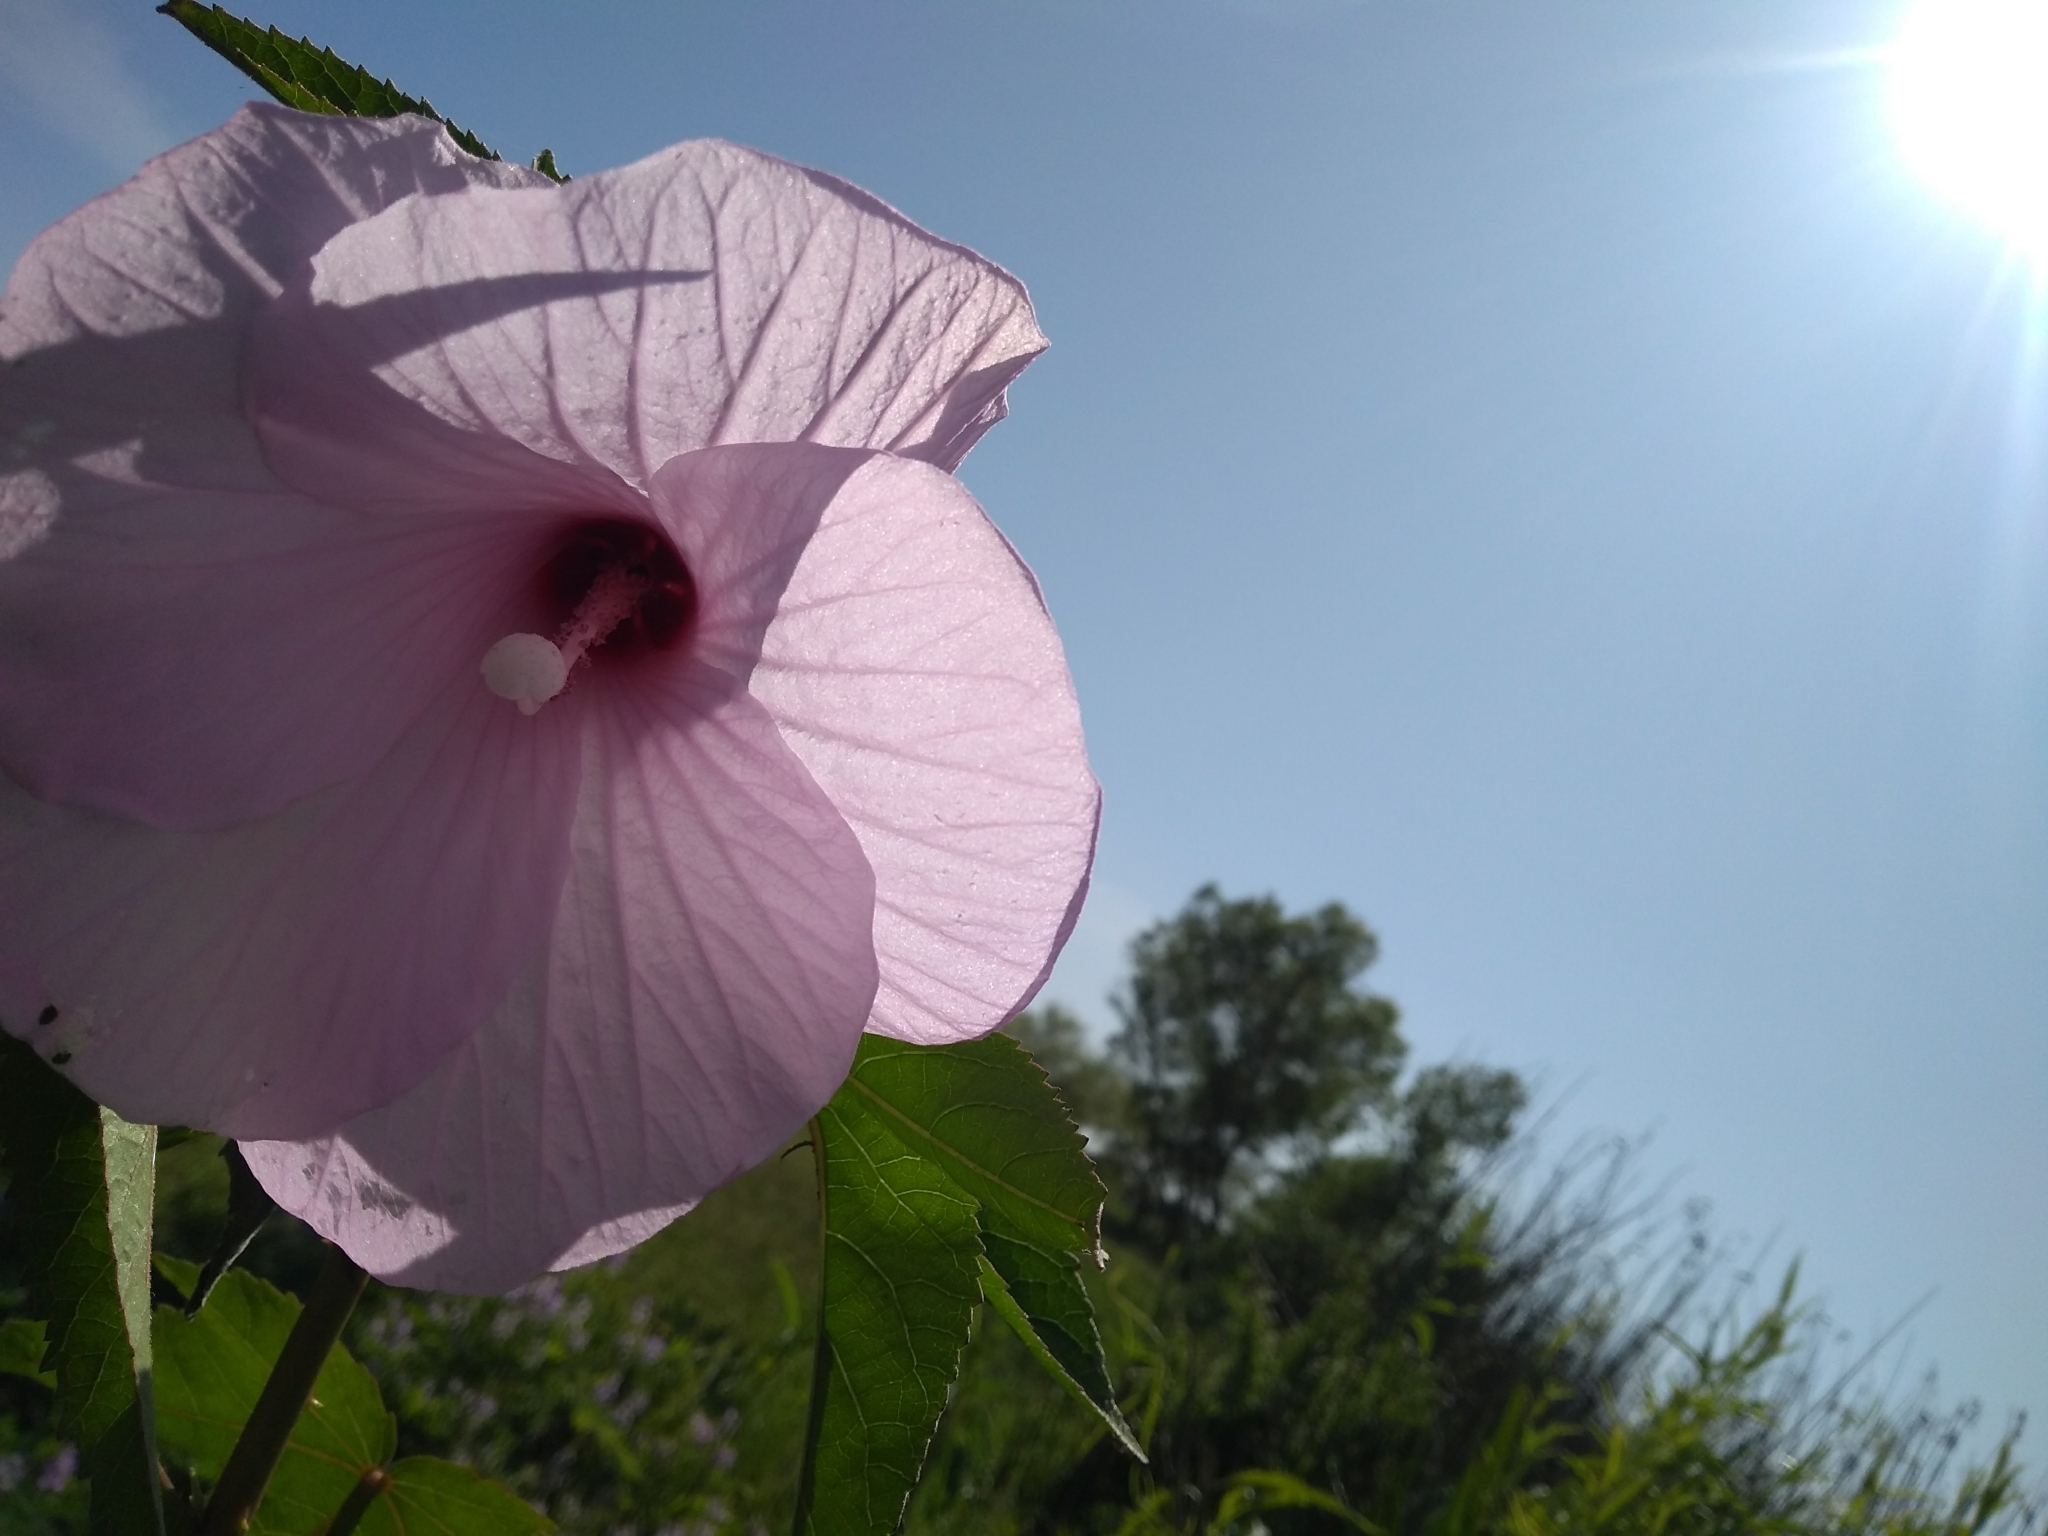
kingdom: Plantae
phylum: Tracheophyta
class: Magnoliopsida
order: Malvales
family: Malvaceae
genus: Hibiscus
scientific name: Hibiscus striatus
